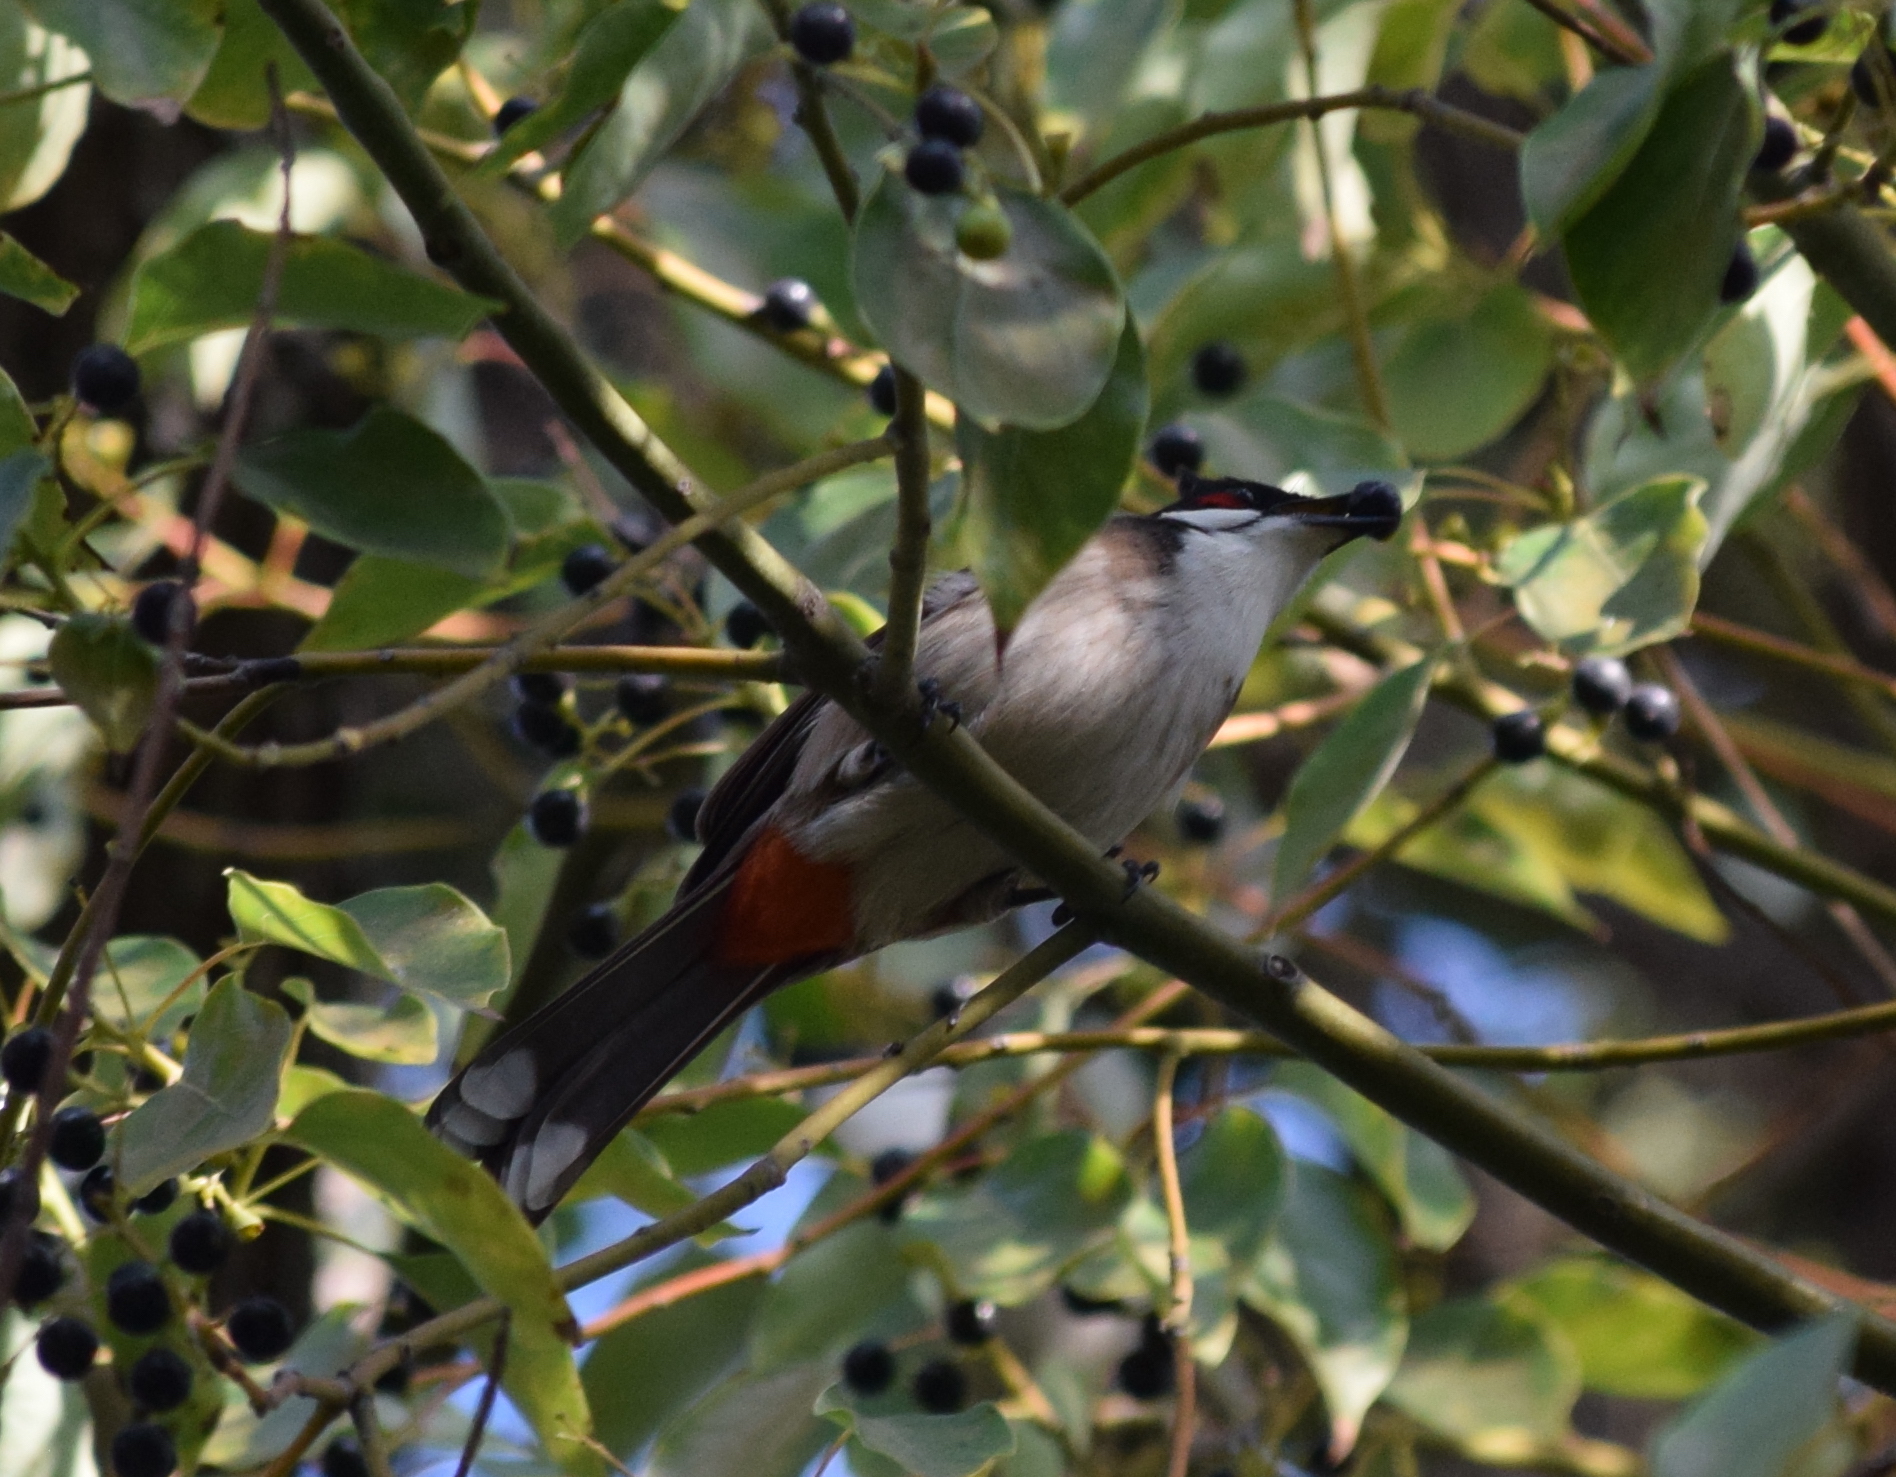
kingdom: Animalia
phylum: Chordata
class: Aves
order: Passeriformes
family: Pycnonotidae
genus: Pycnonotus
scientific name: Pycnonotus jocosus
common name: Red-whiskered bulbul
